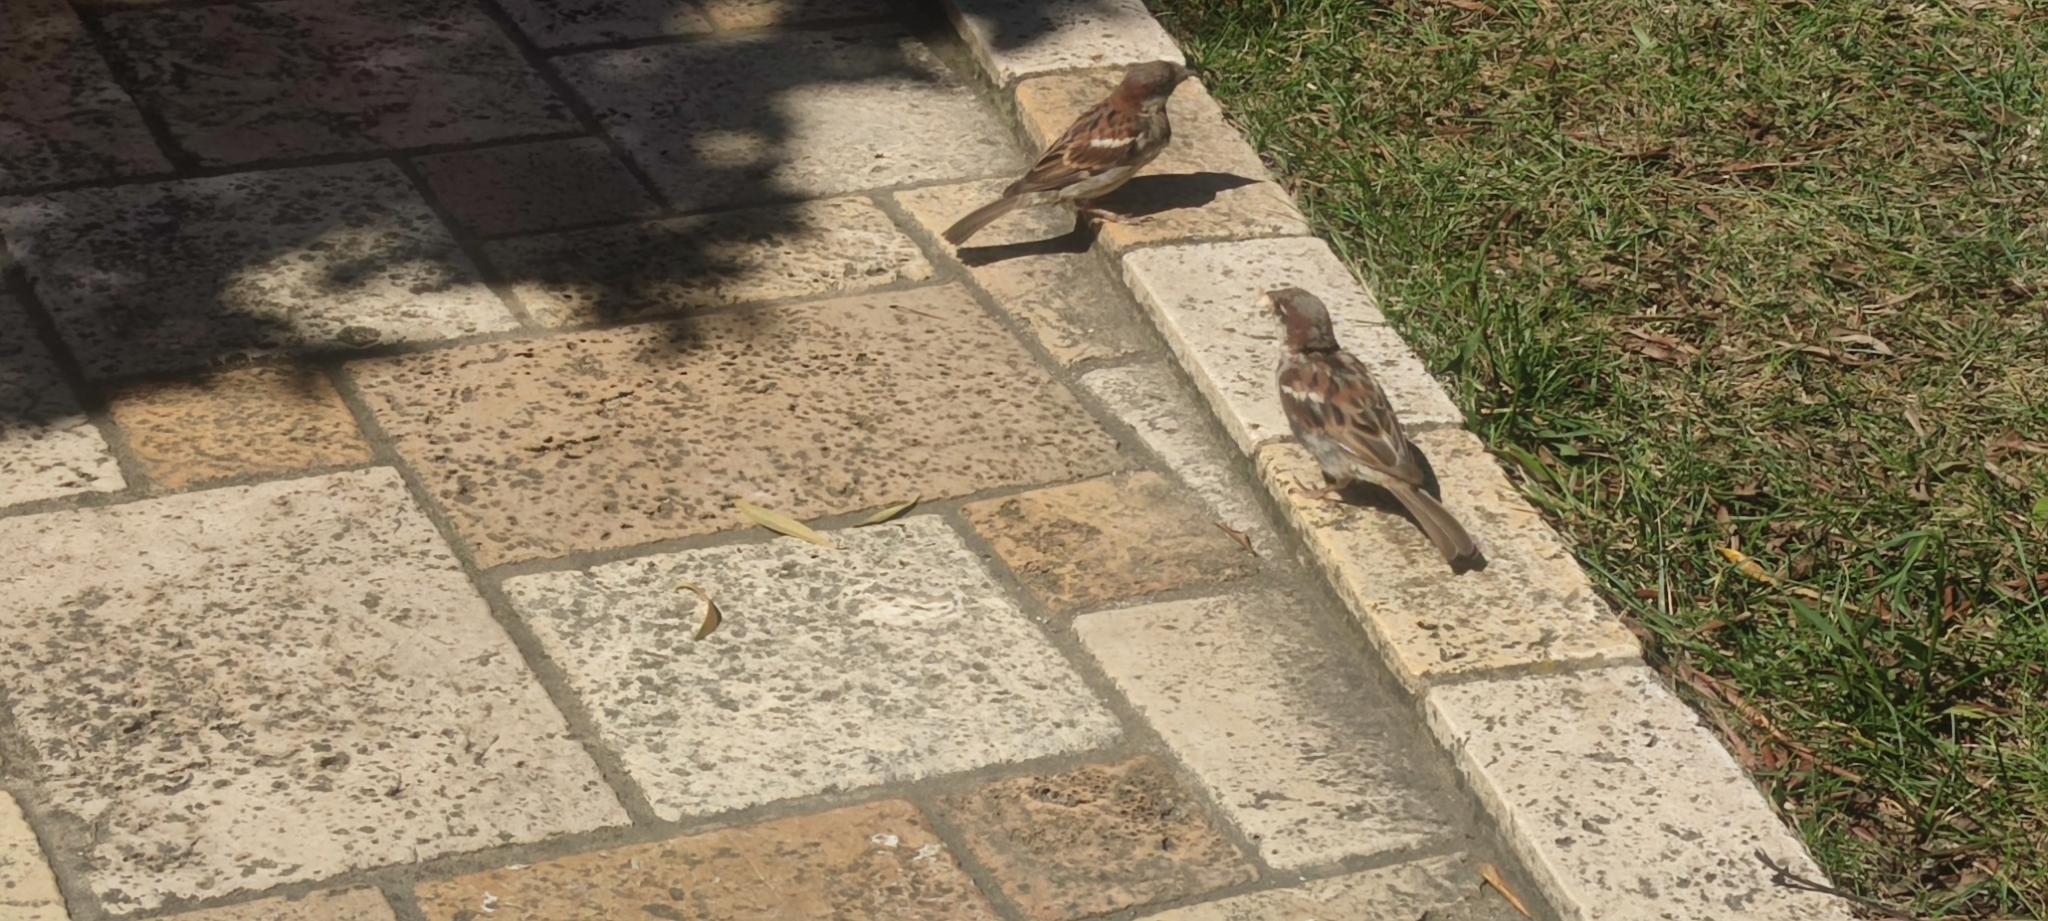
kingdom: Animalia
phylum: Chordata
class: Aves
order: Passeriformes
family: Passeridae
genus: Passer
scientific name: Passer domesticus
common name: House sparrow
